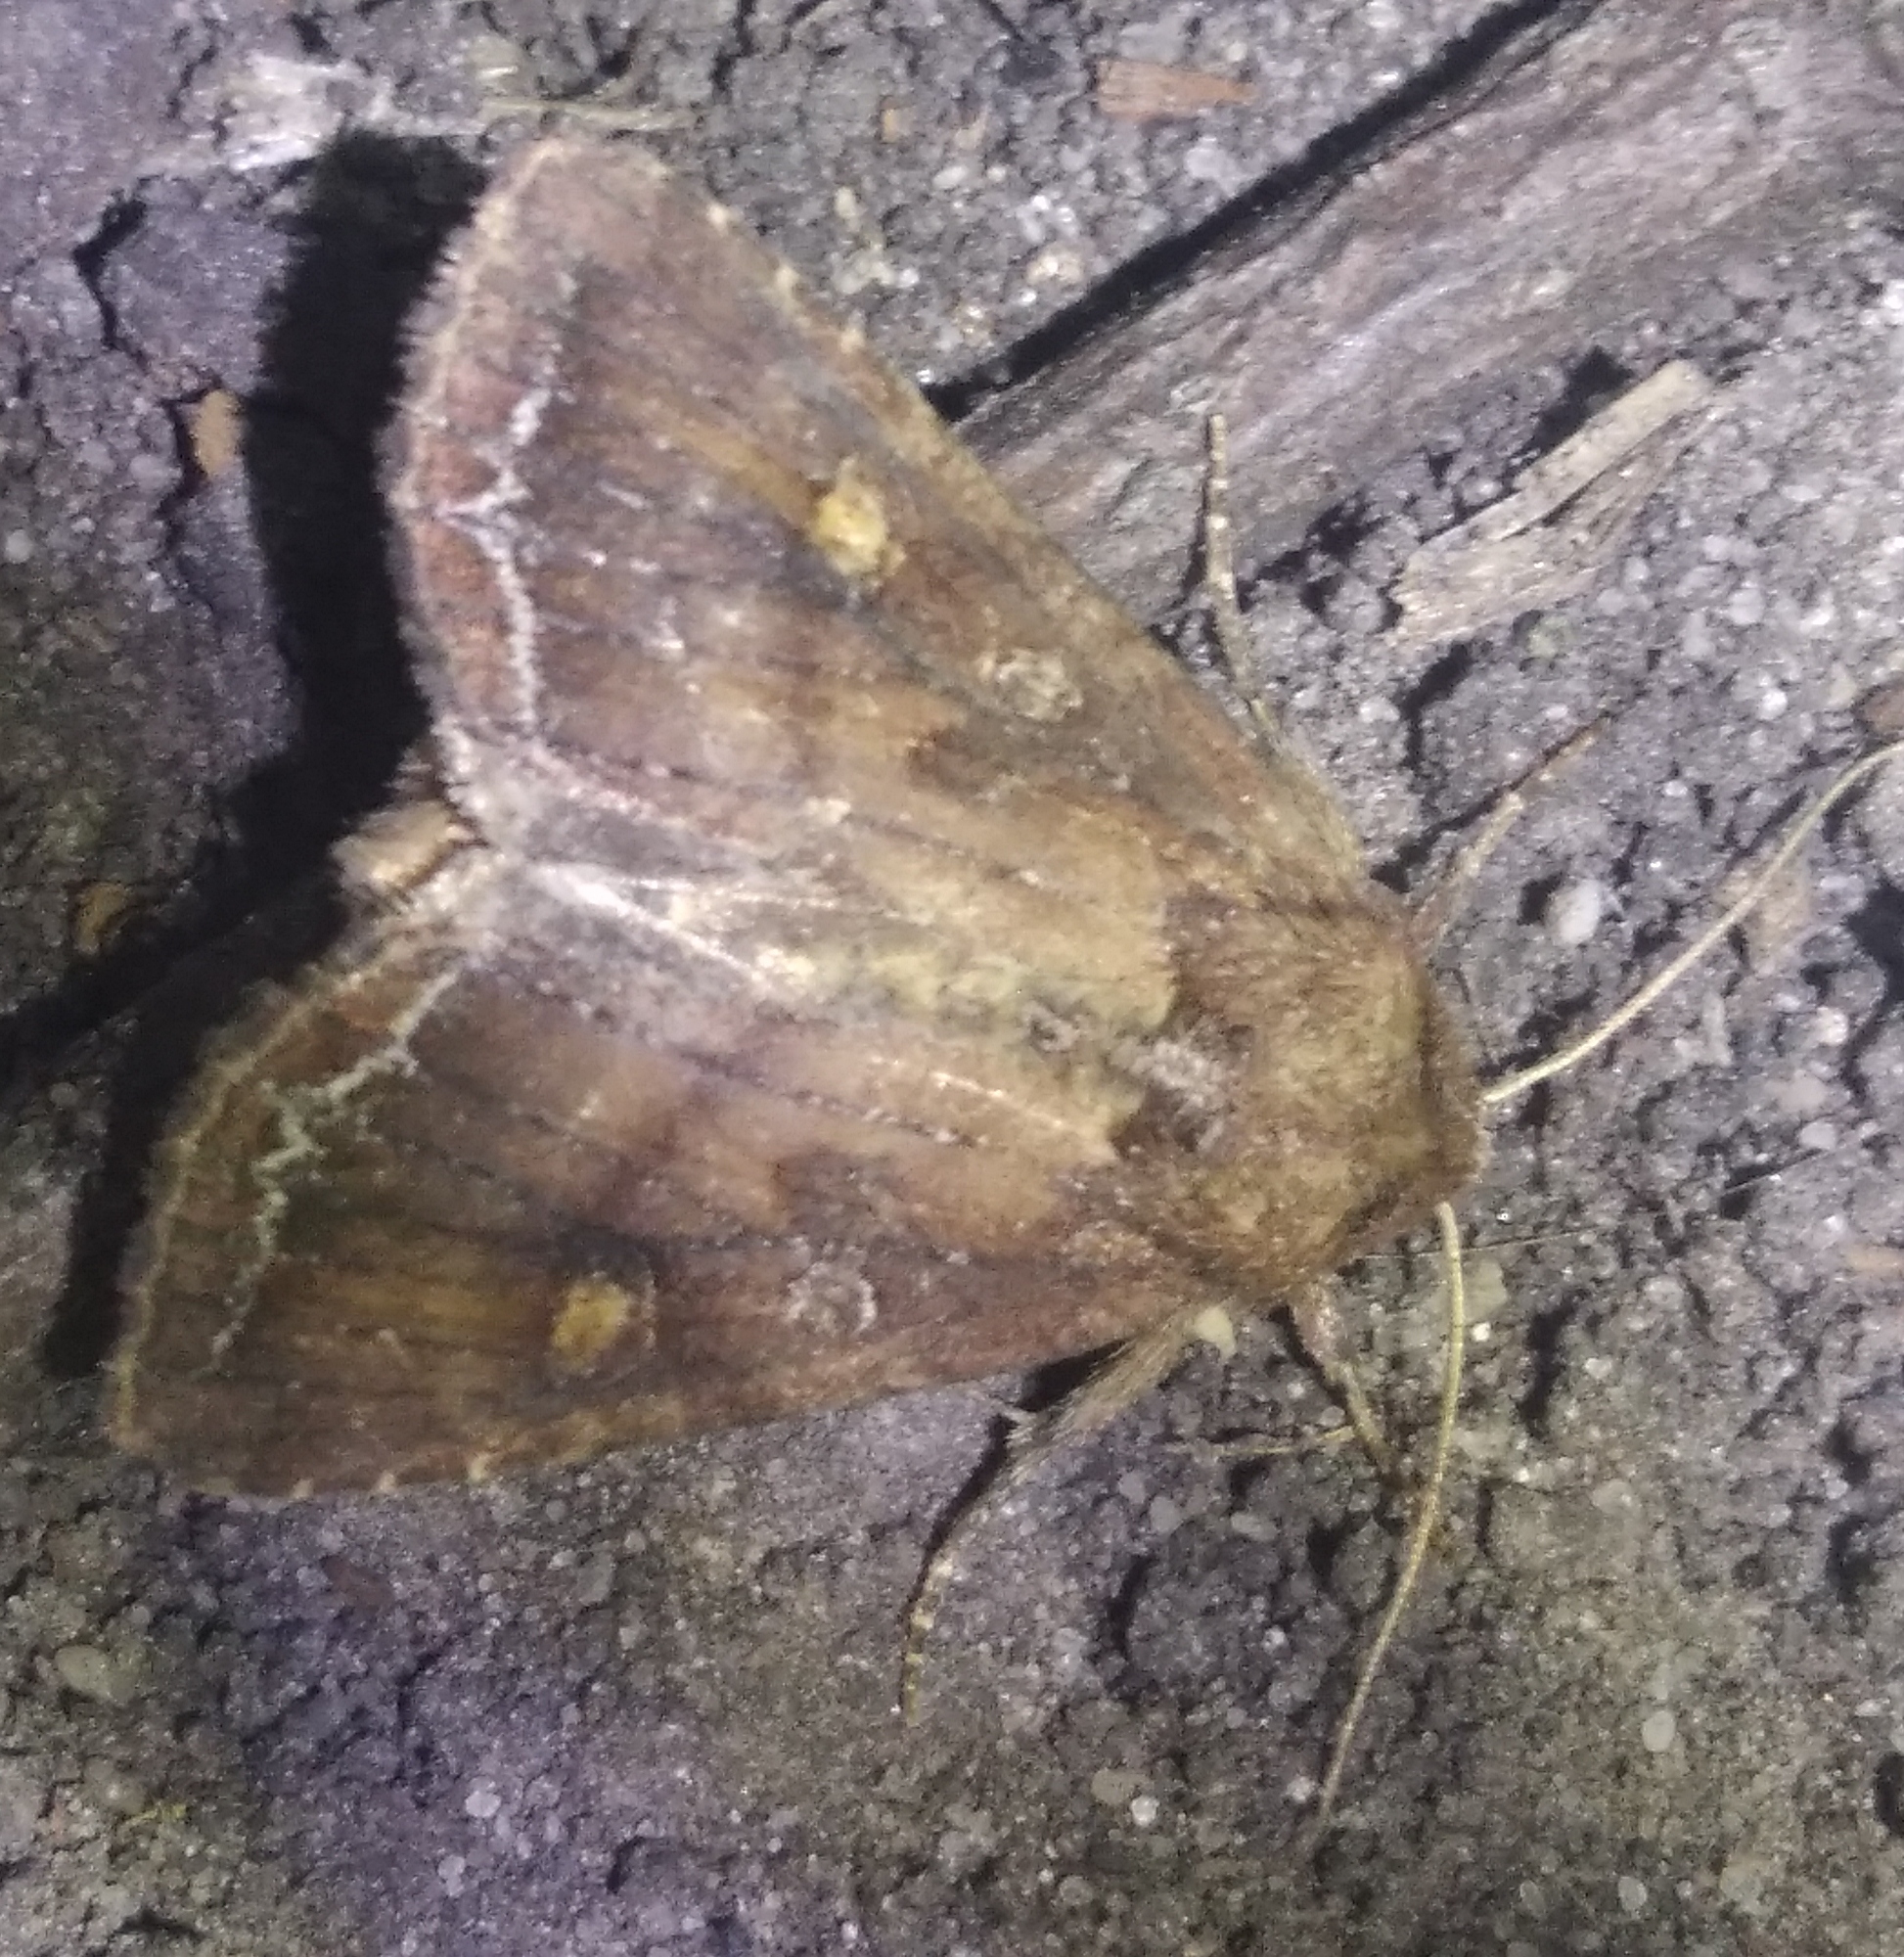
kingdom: Animalia
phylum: Arthropoda
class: Insecta
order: Lepidoptera
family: Noctuidae
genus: Lacanobia
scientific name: Lacanobia oleracea
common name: Bright-line brown-eye
